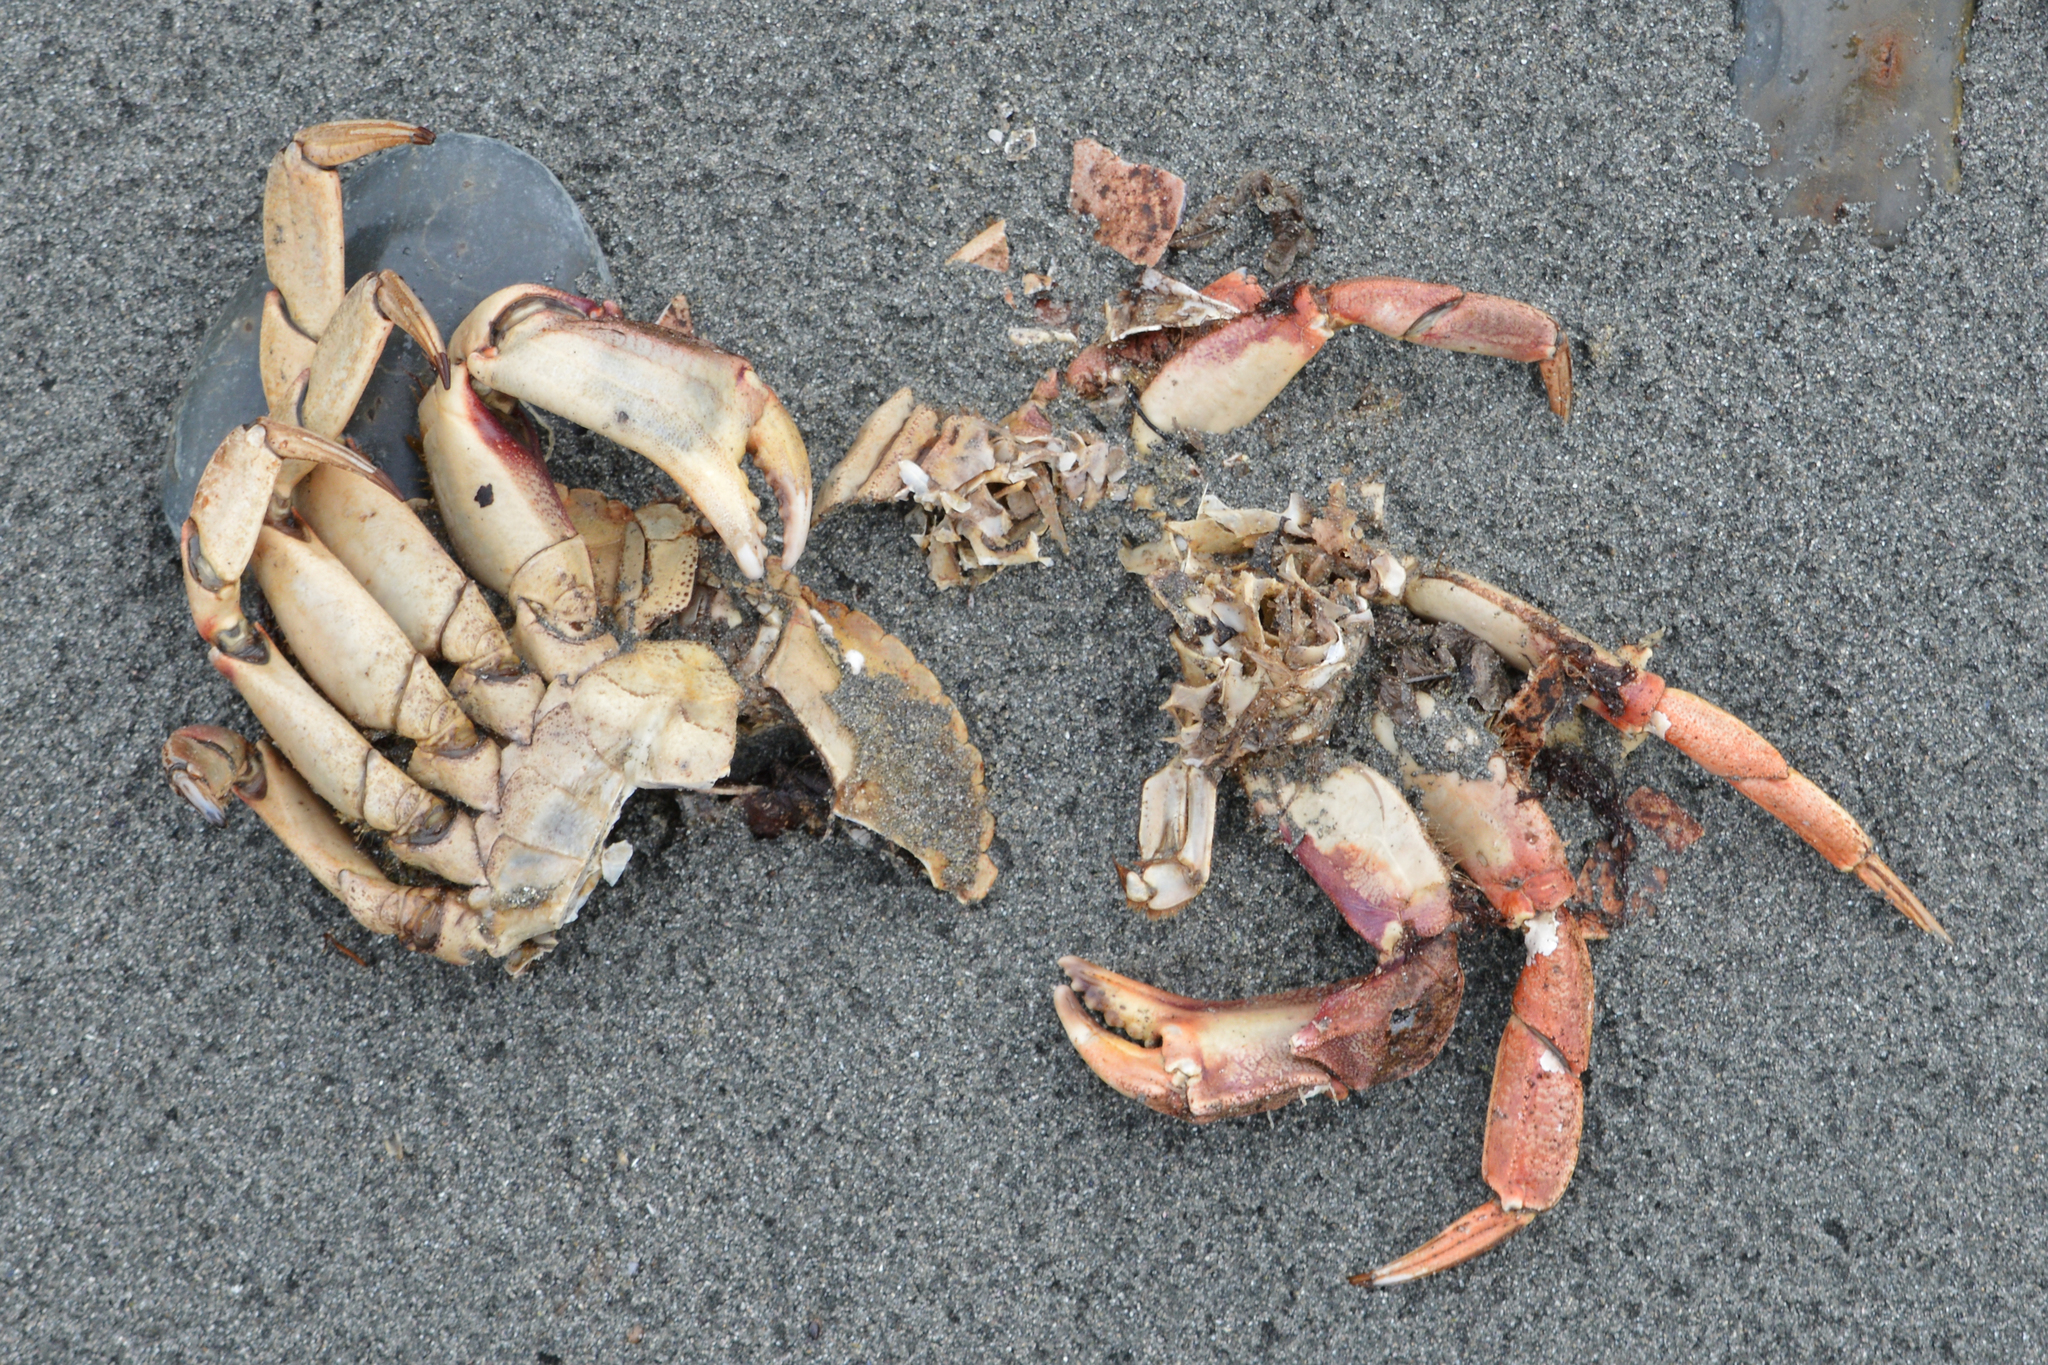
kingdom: Animalia
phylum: Arthropoda
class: Malacostraca
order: Decapoda
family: Cancridae
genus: Cancer
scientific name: Cancer irroratus
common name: Atlantic rock crab
